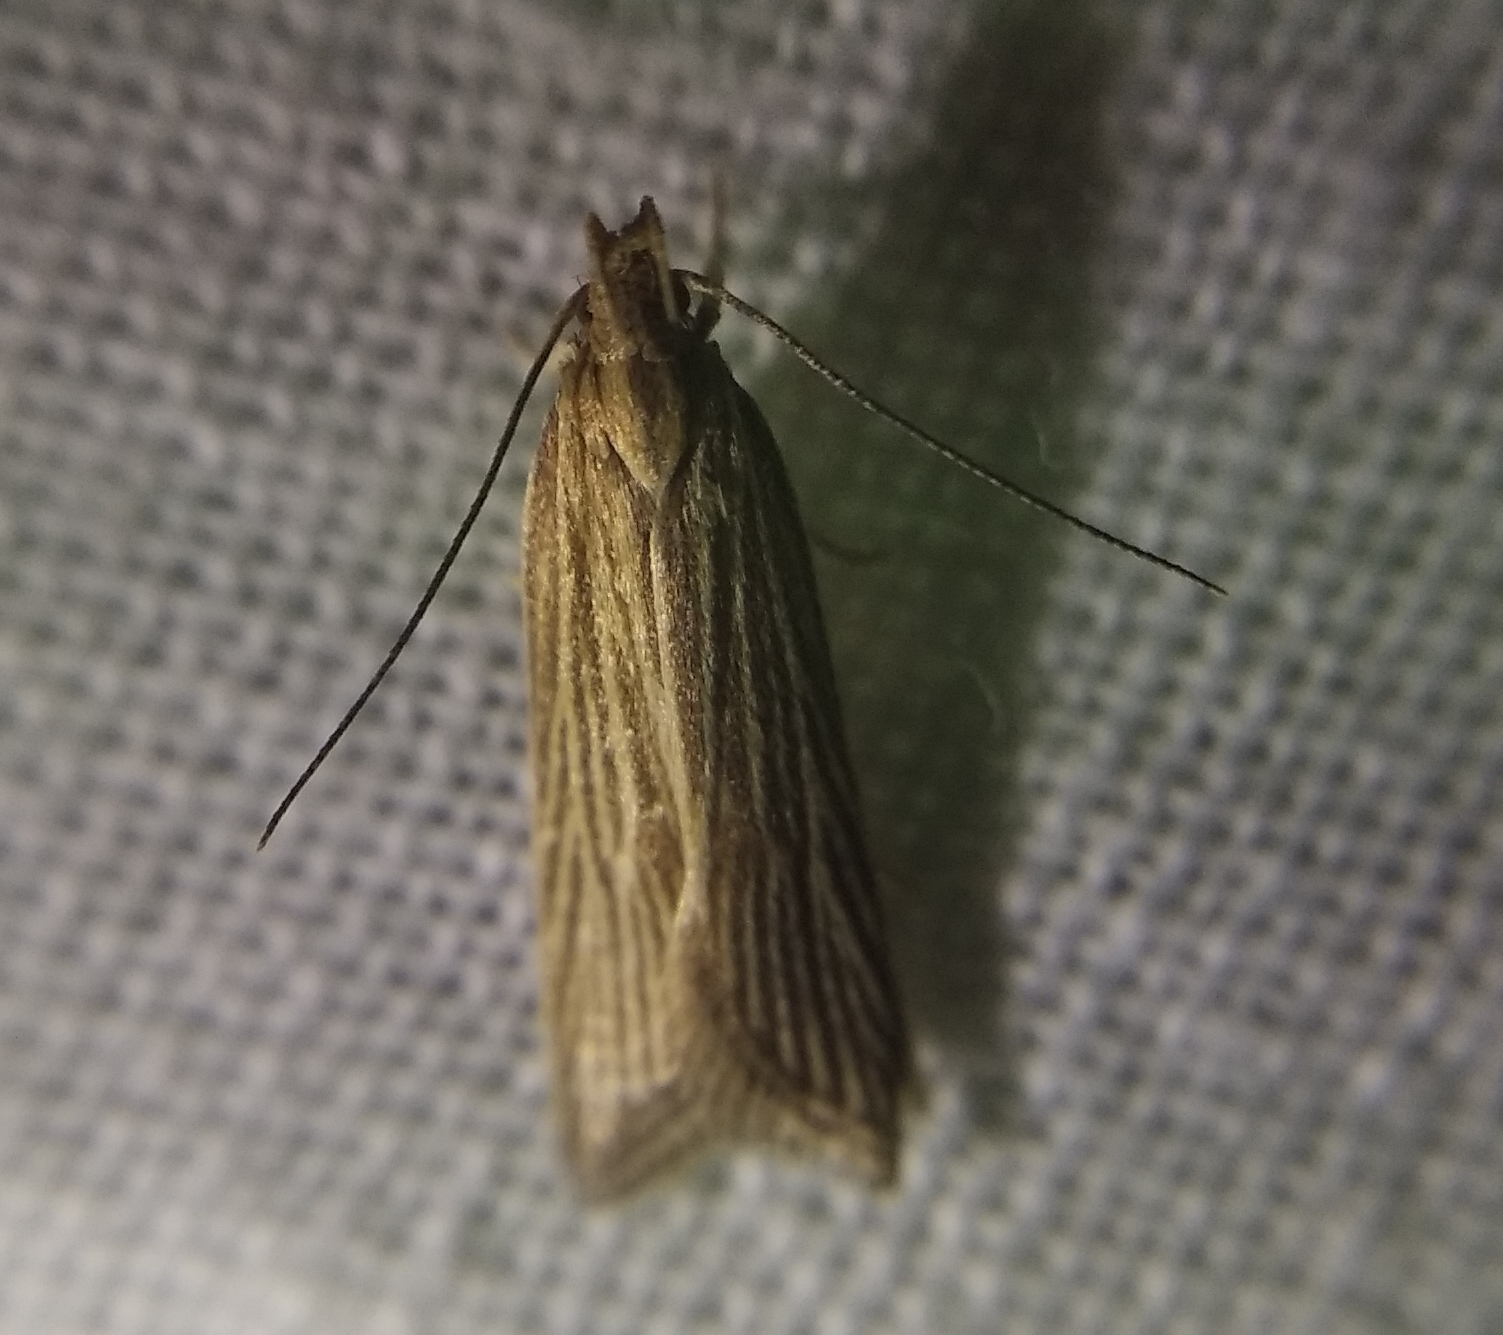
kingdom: Animalia
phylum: Arthropoda
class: Insecta
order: Lepidoptera
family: Gelechiidae
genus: Helcystogramma
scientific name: Helcystogramma albinervis
